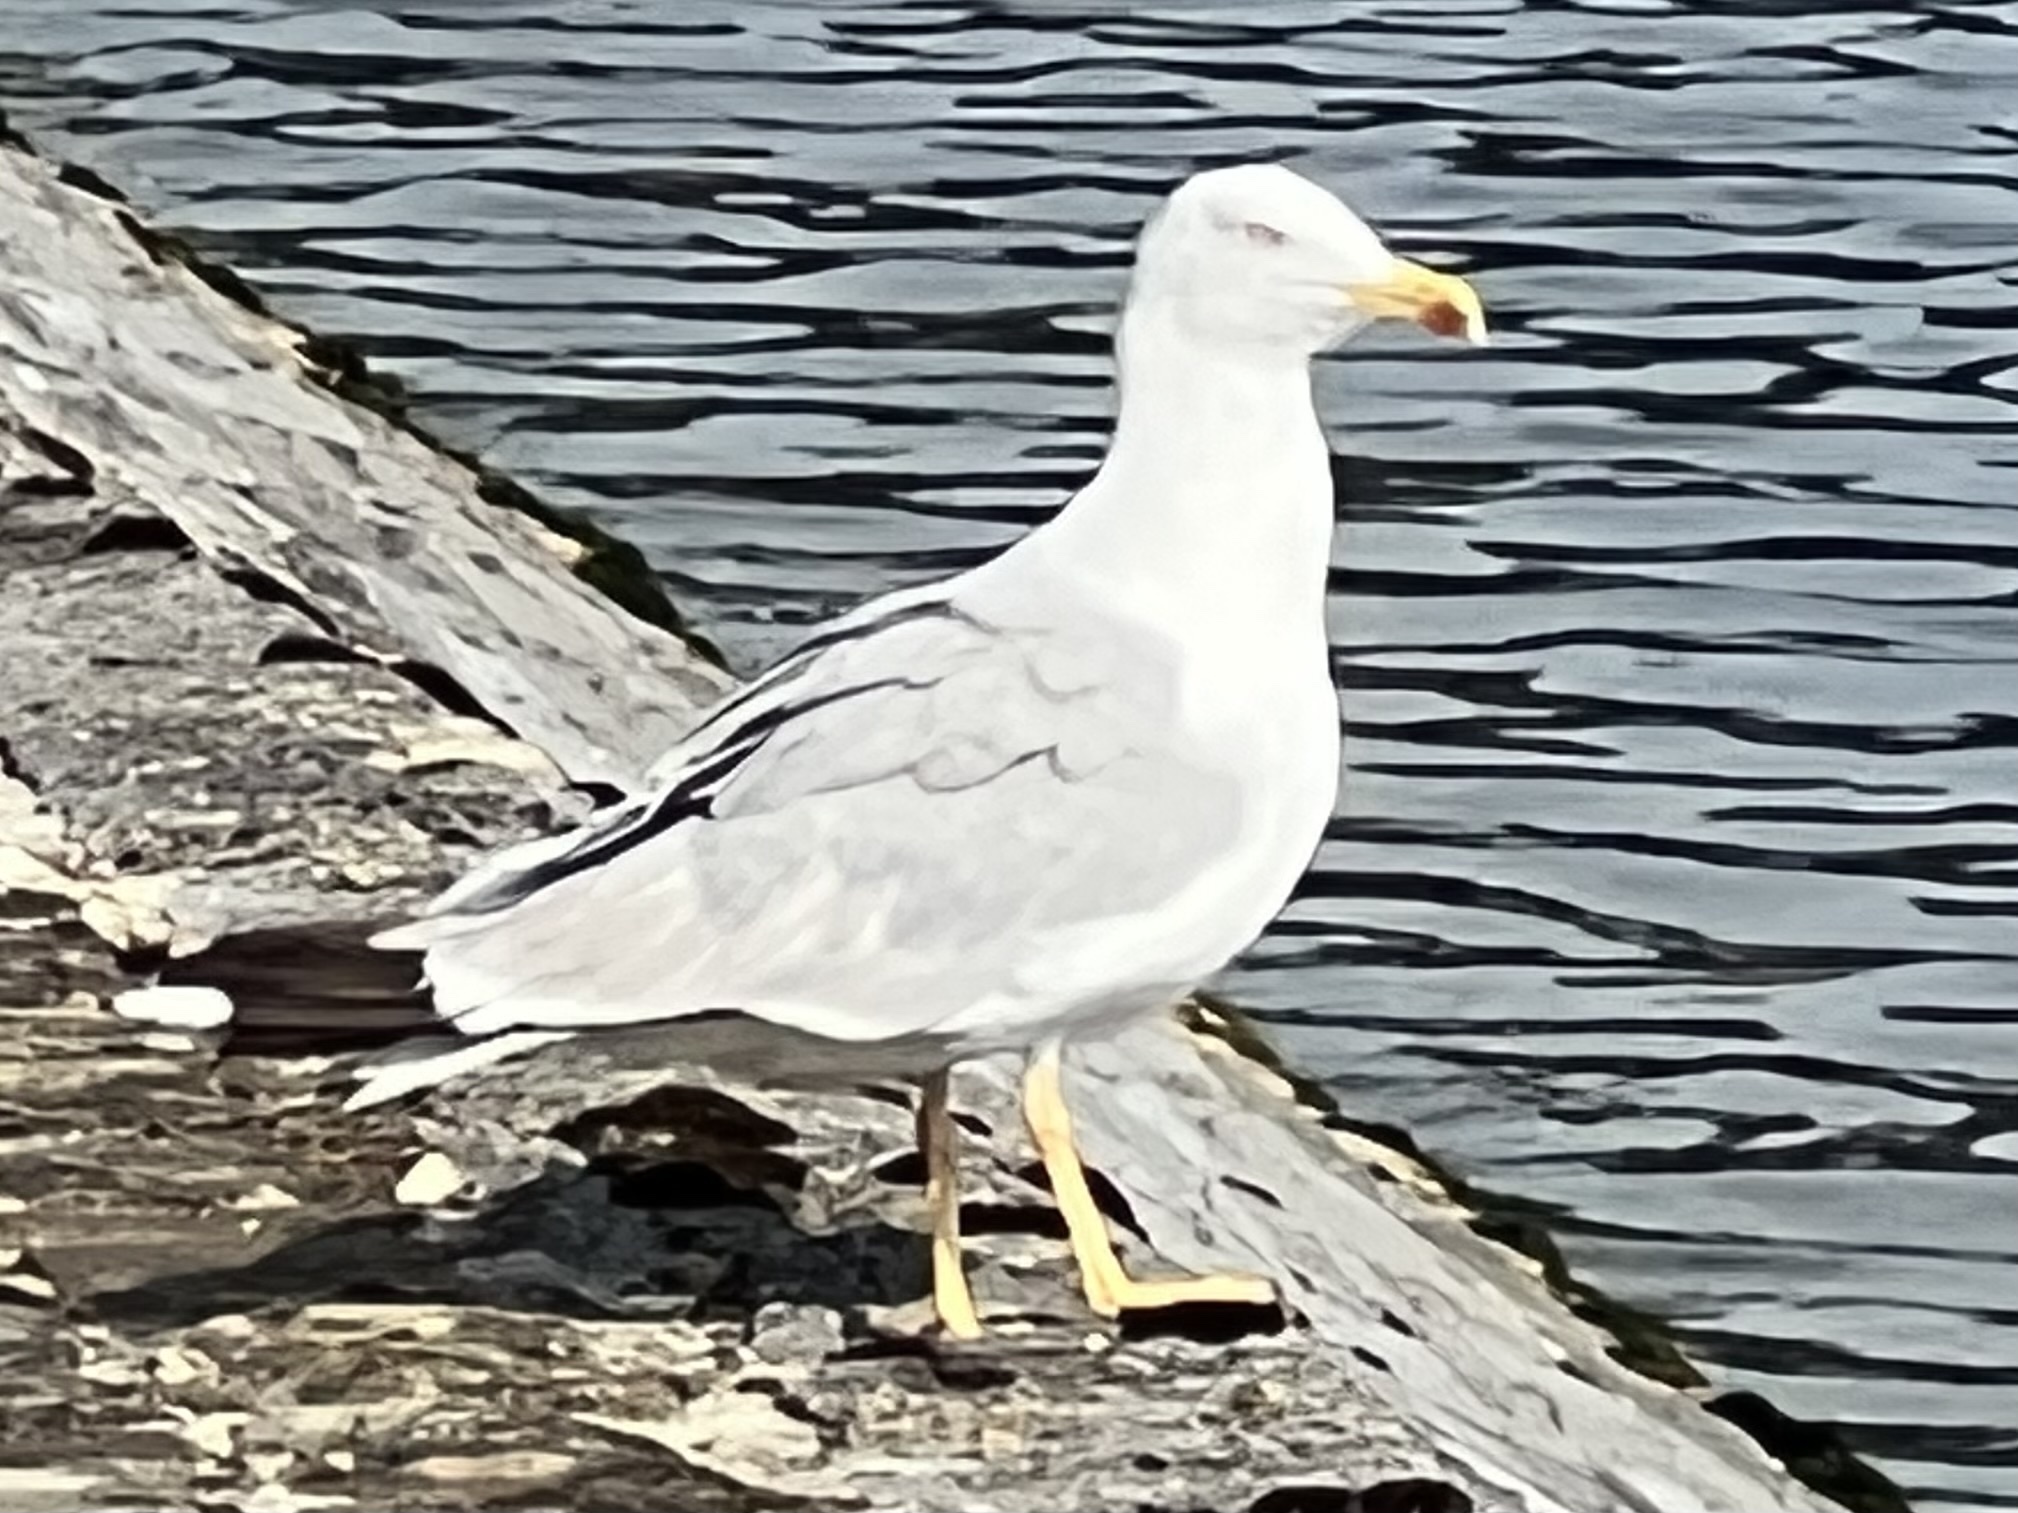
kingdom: Animalia
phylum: Chordata
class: Aves
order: Charadriiformes
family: Laridae
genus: Larus
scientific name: Larus michahellis
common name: Yellow-legged gull
